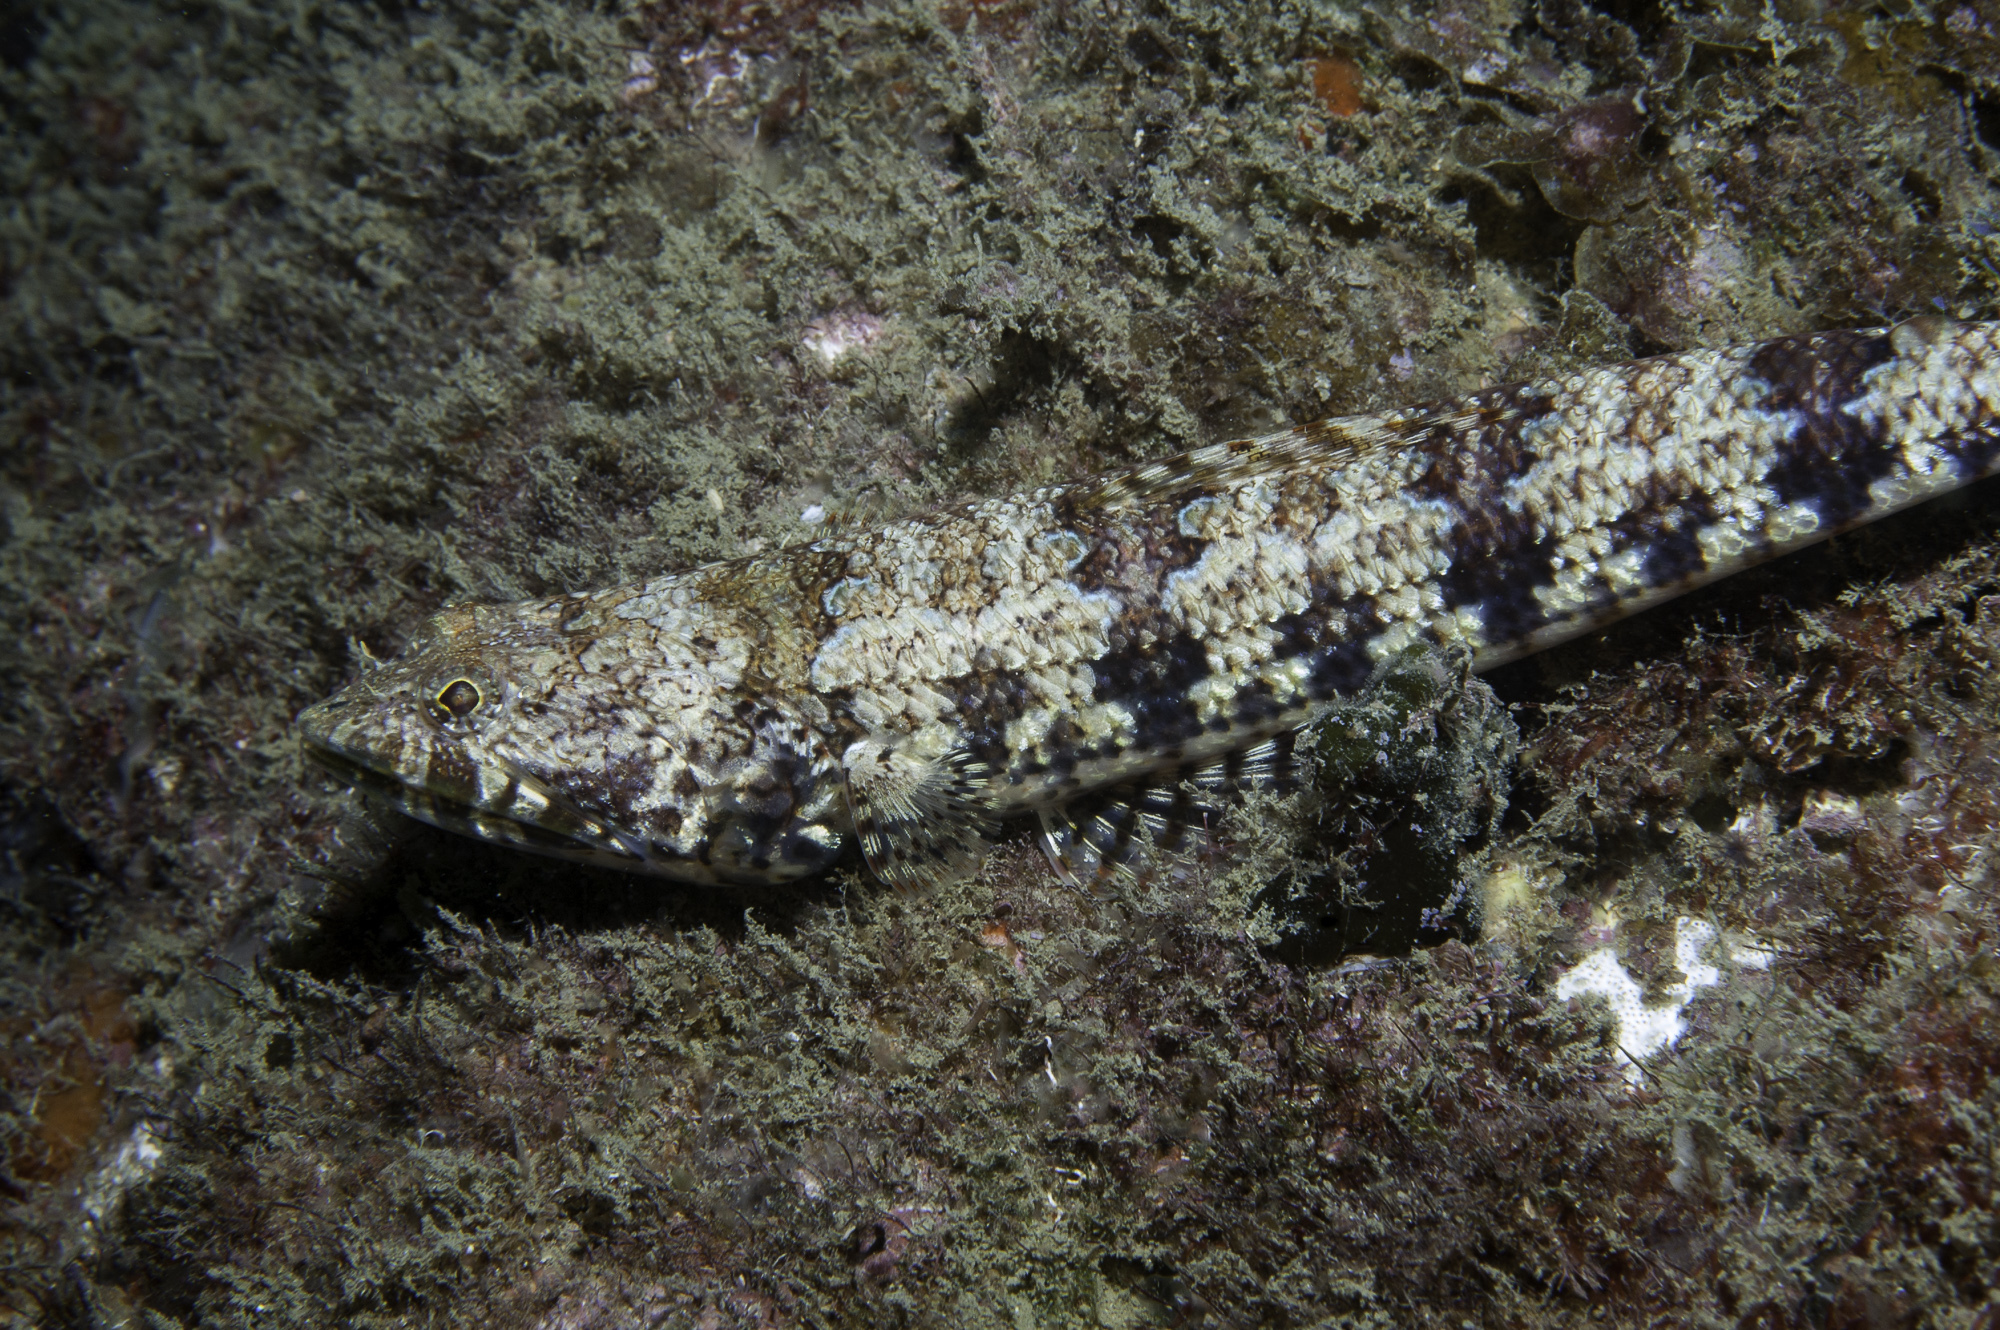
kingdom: Animalia
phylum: Chordata
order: Aulopiformes
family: Synodontidae
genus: Synodus
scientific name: Synodus synodus
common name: Red lizardfish
